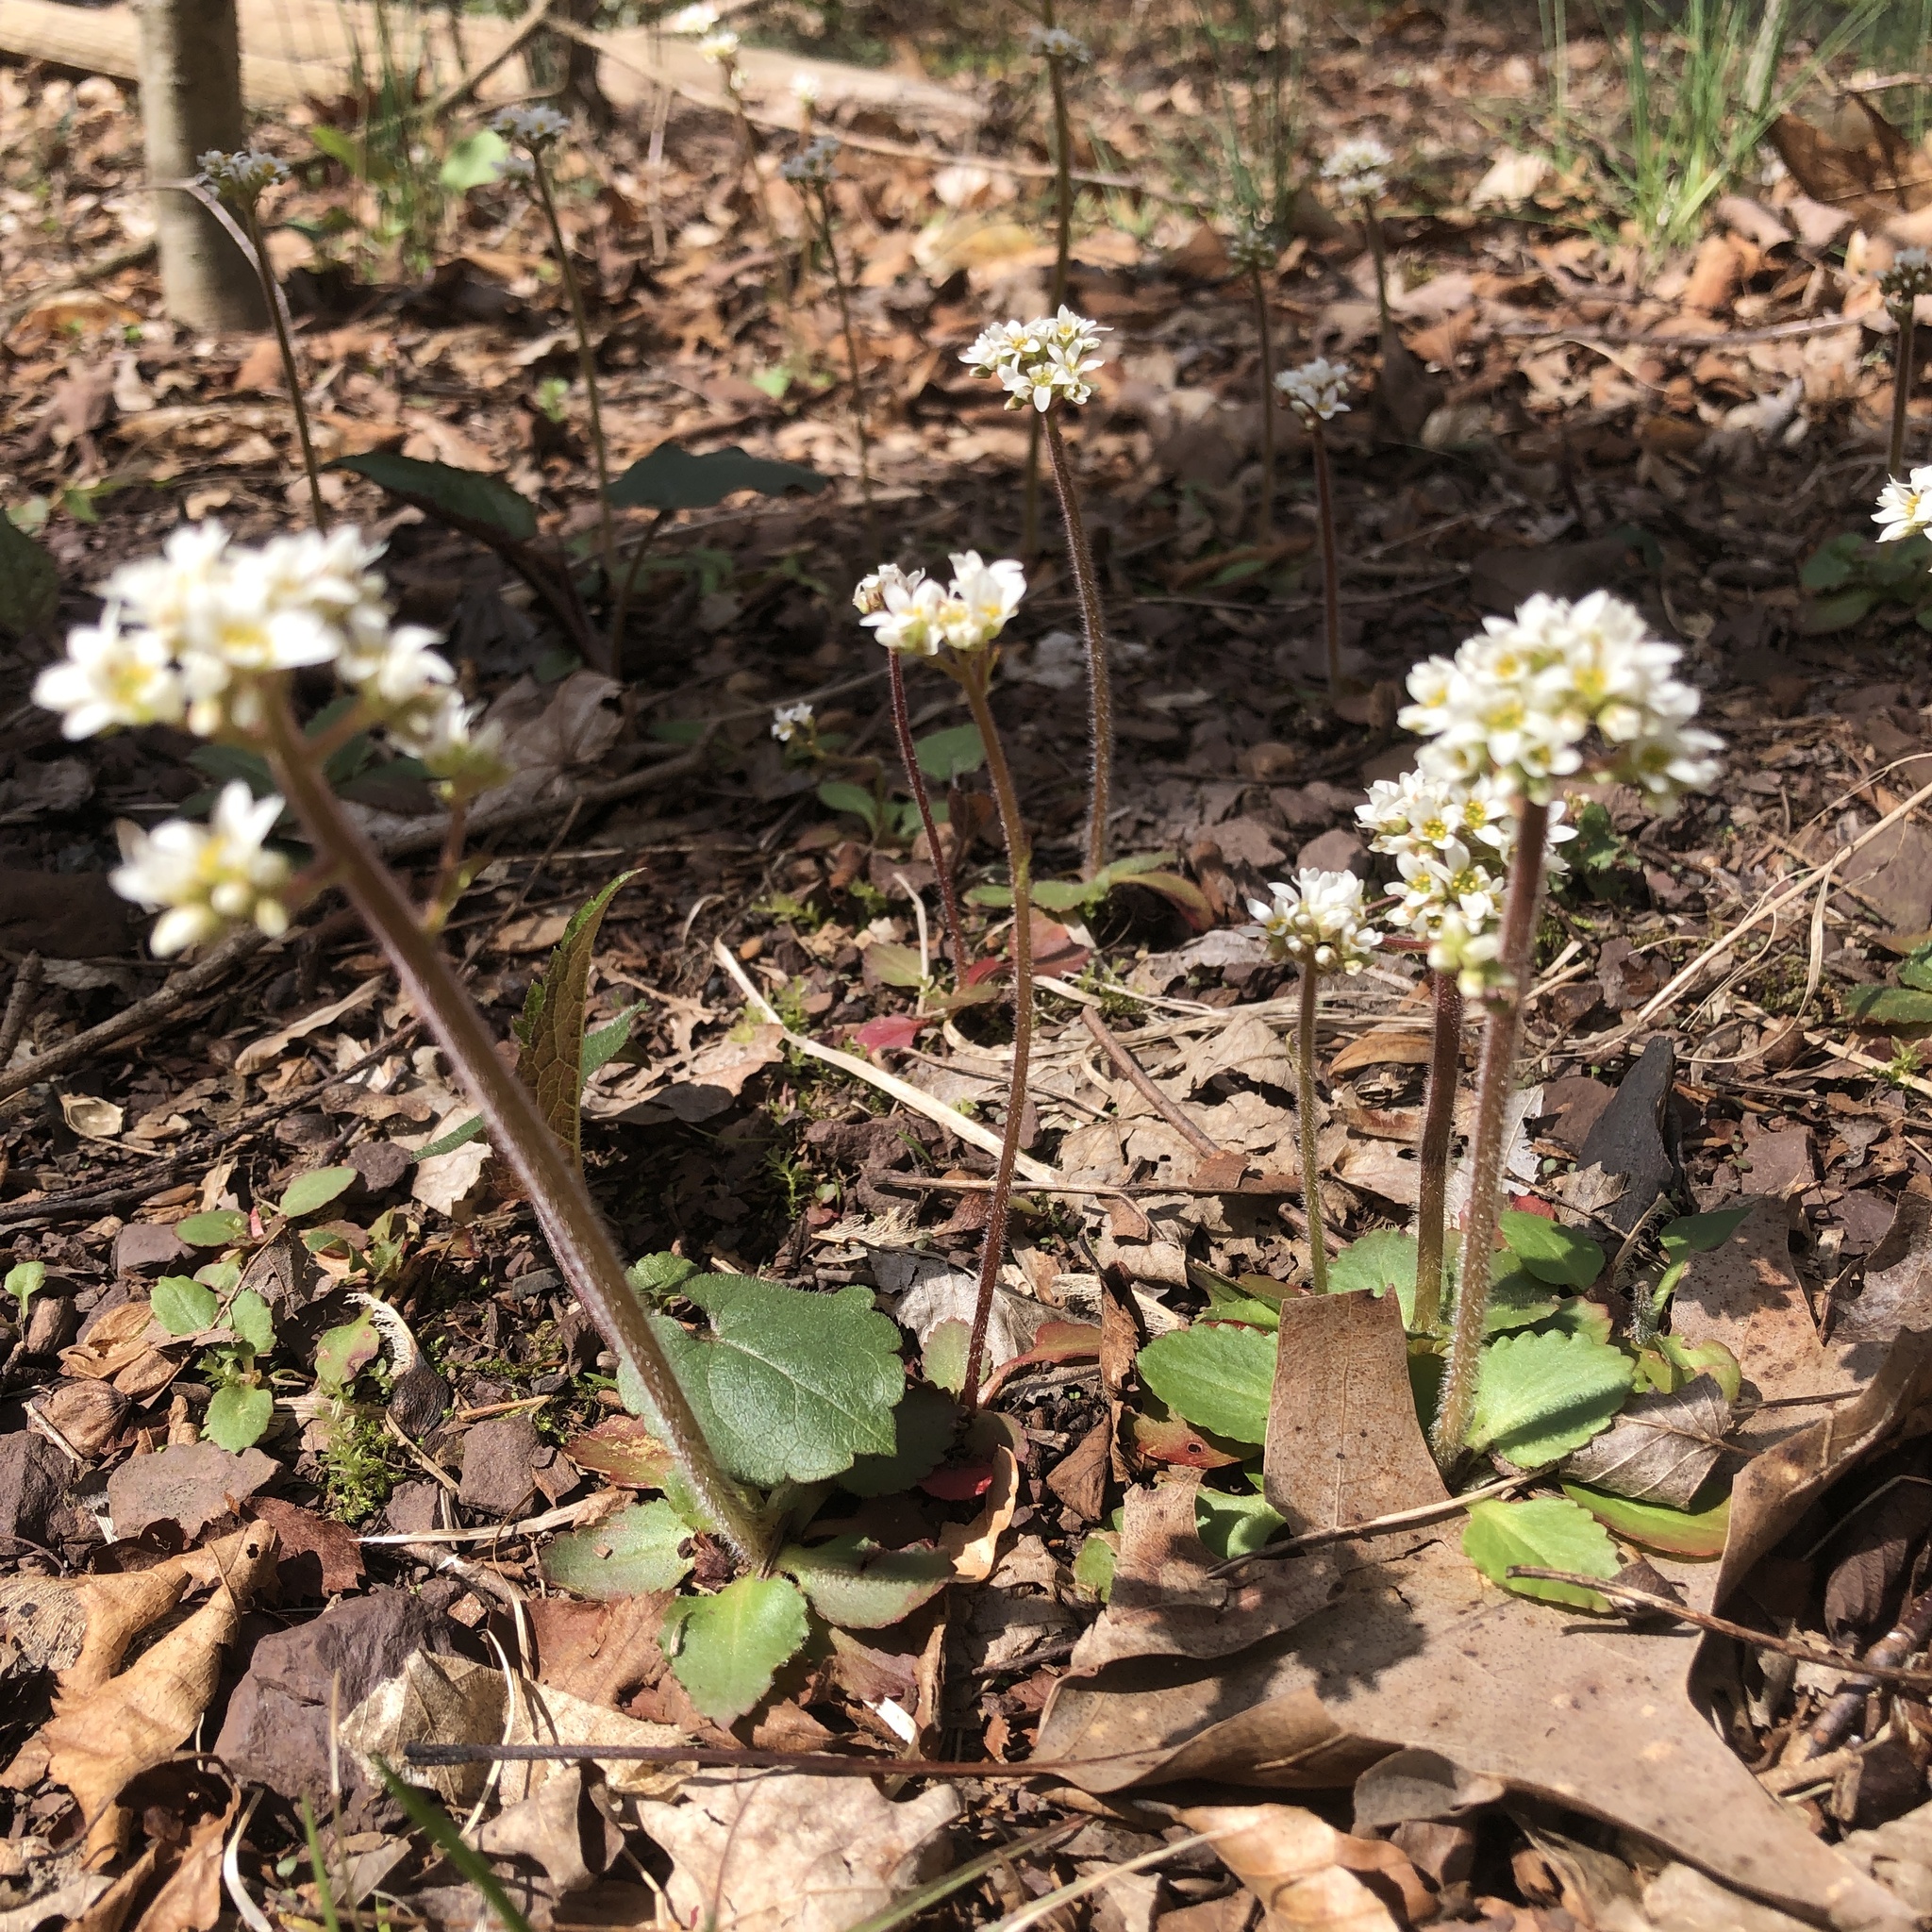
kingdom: Plantae
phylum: Tracheophyta
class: Magnoliopsida
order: Saxifragales
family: Saxifragaceae
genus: Micranthes
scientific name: Micranthes virginiensis
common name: Early saxifrage
